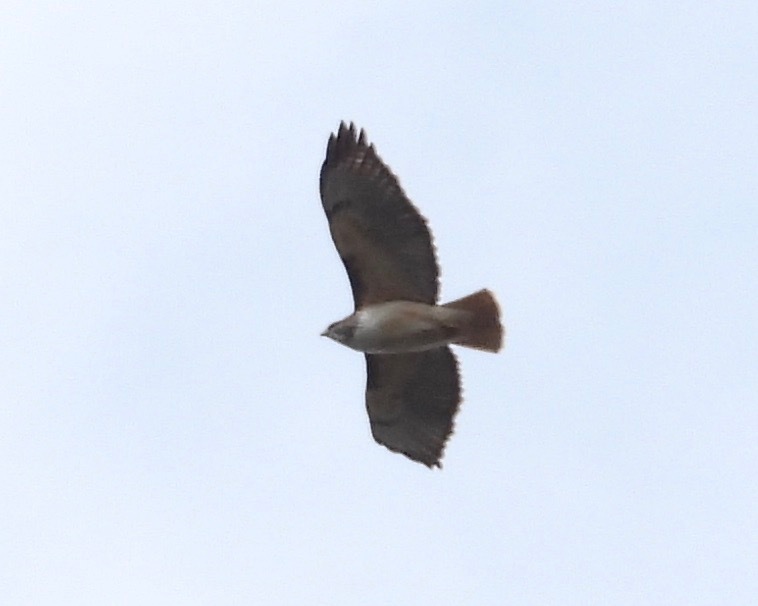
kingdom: Animalia
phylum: Chordata
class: Aves
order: Accipitriformes
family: Accipitridae
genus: Buteo
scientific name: Buteo jamaicensis
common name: Red-tailed hawk
